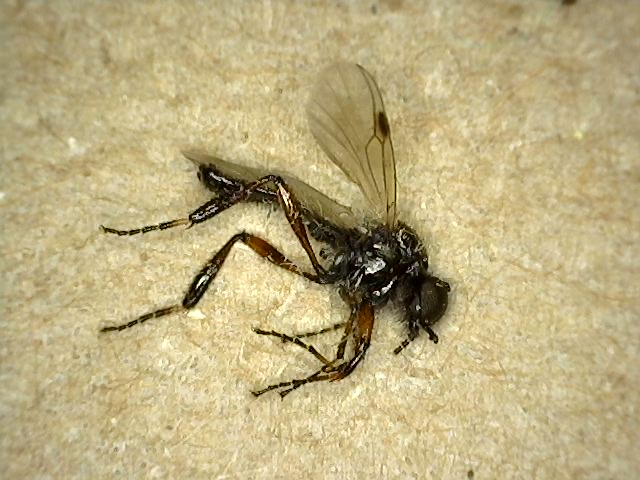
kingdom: Animalia
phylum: Arthropoda
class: Insecta
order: Diptera
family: Bibionidae
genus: Bibio
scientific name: Bibio articulatus
